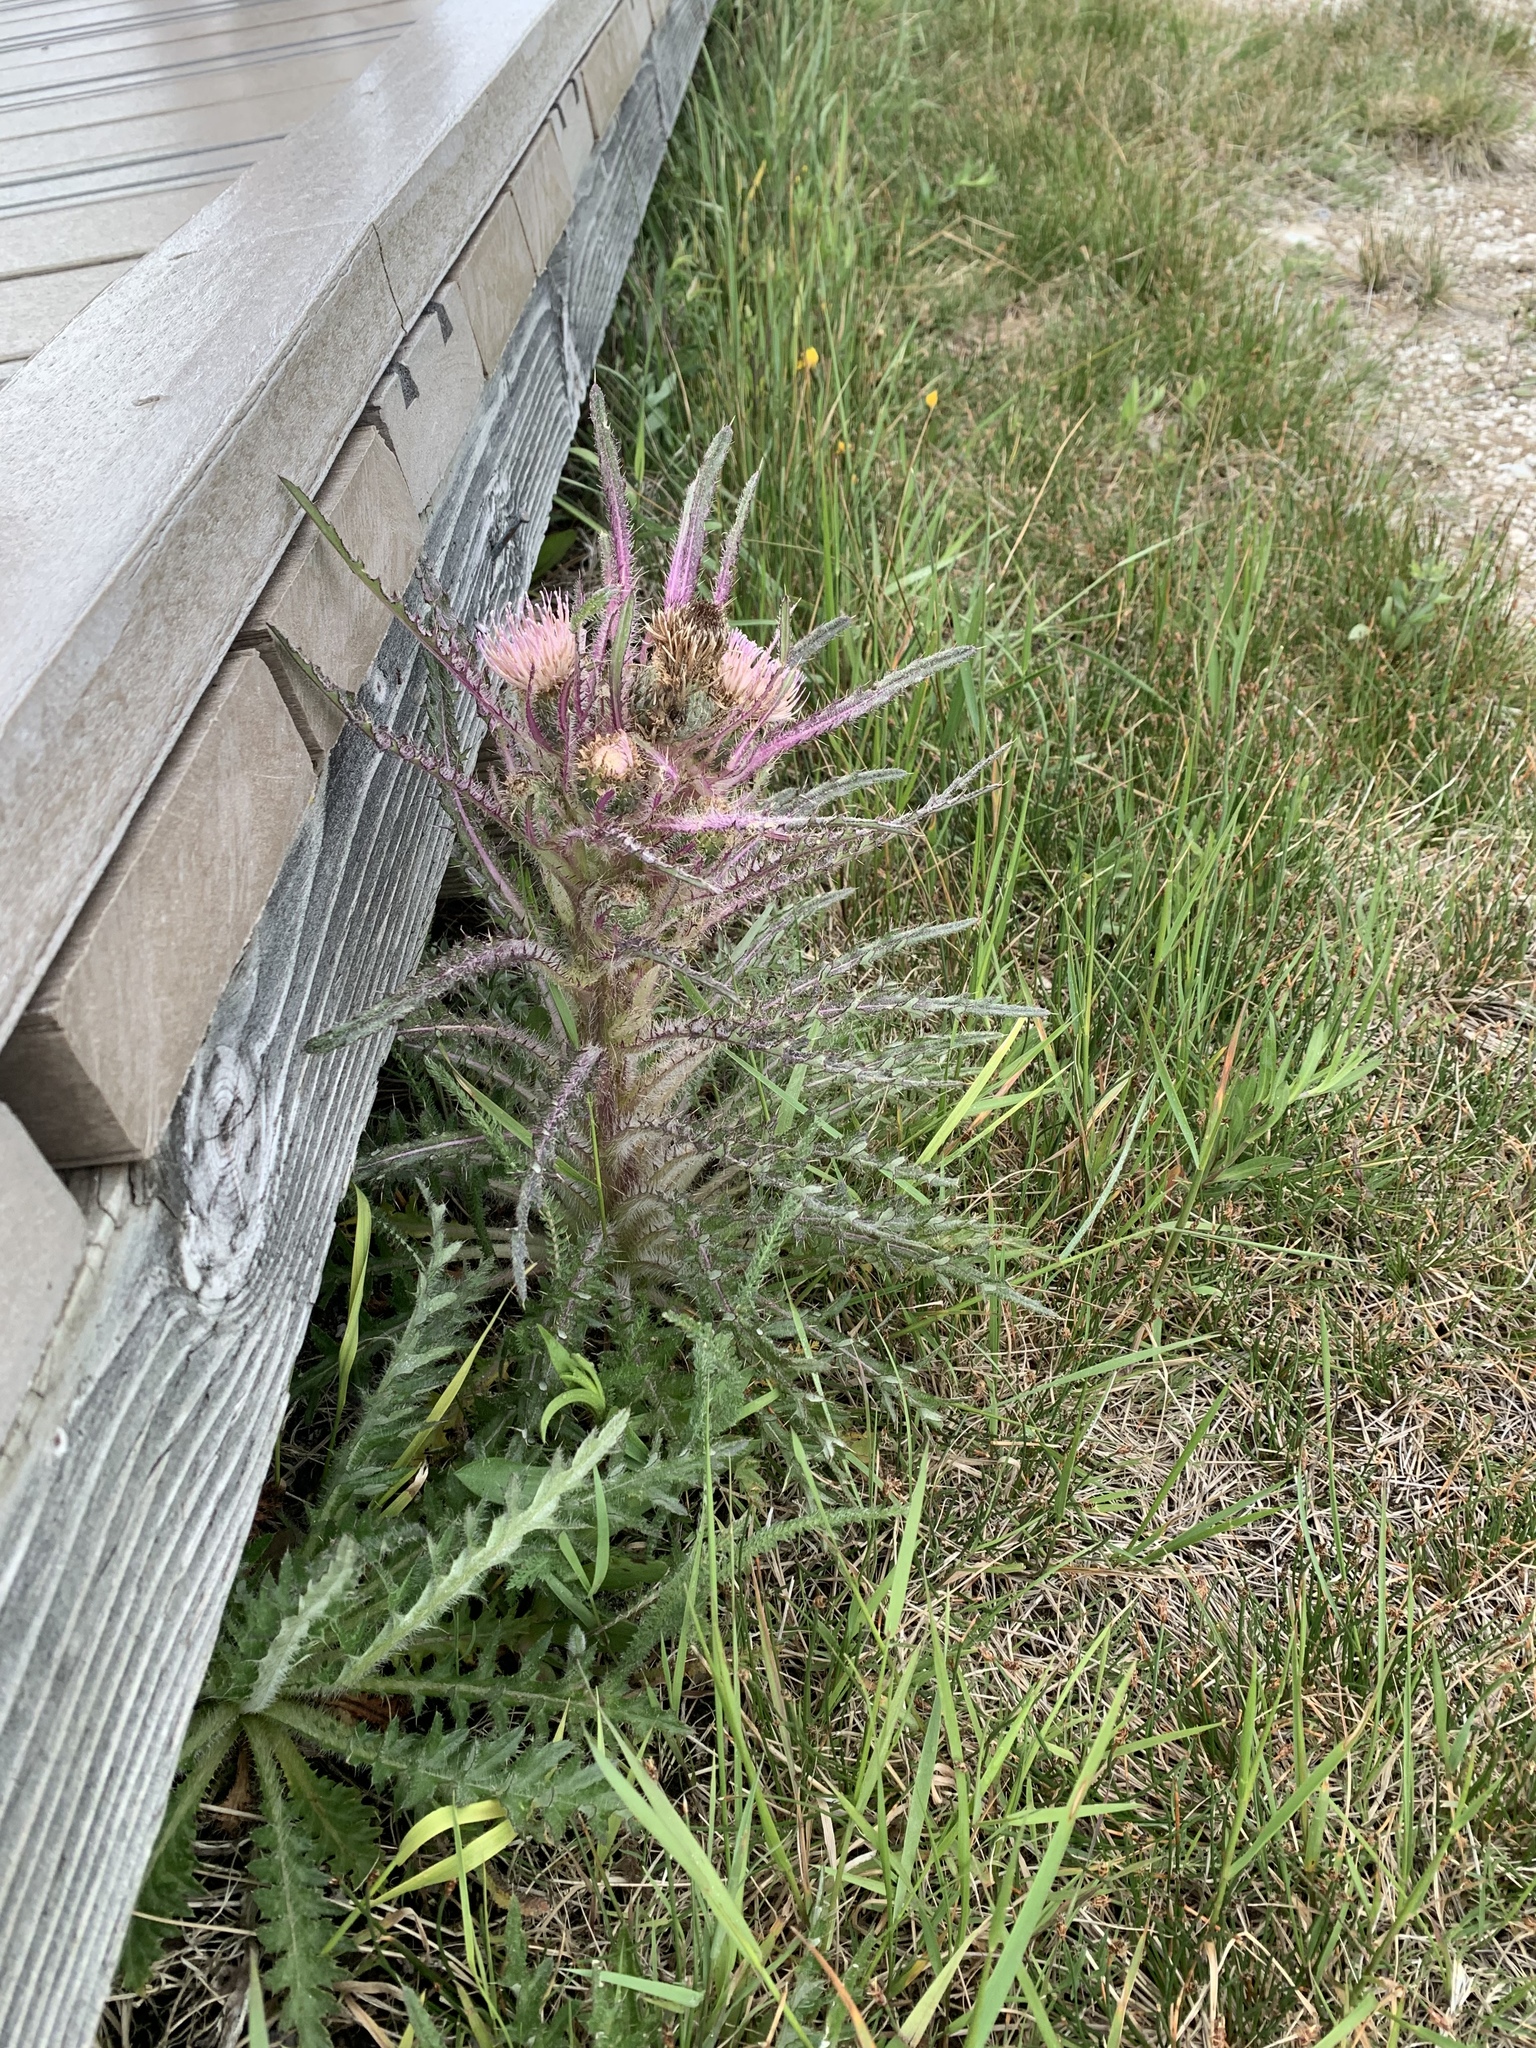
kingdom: Plantae
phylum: Tracheophyta
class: Magnoliopsida
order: Asterales
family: Asteraceae
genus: Cirsium
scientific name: Cirsium scariosum
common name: Meadow thistle
